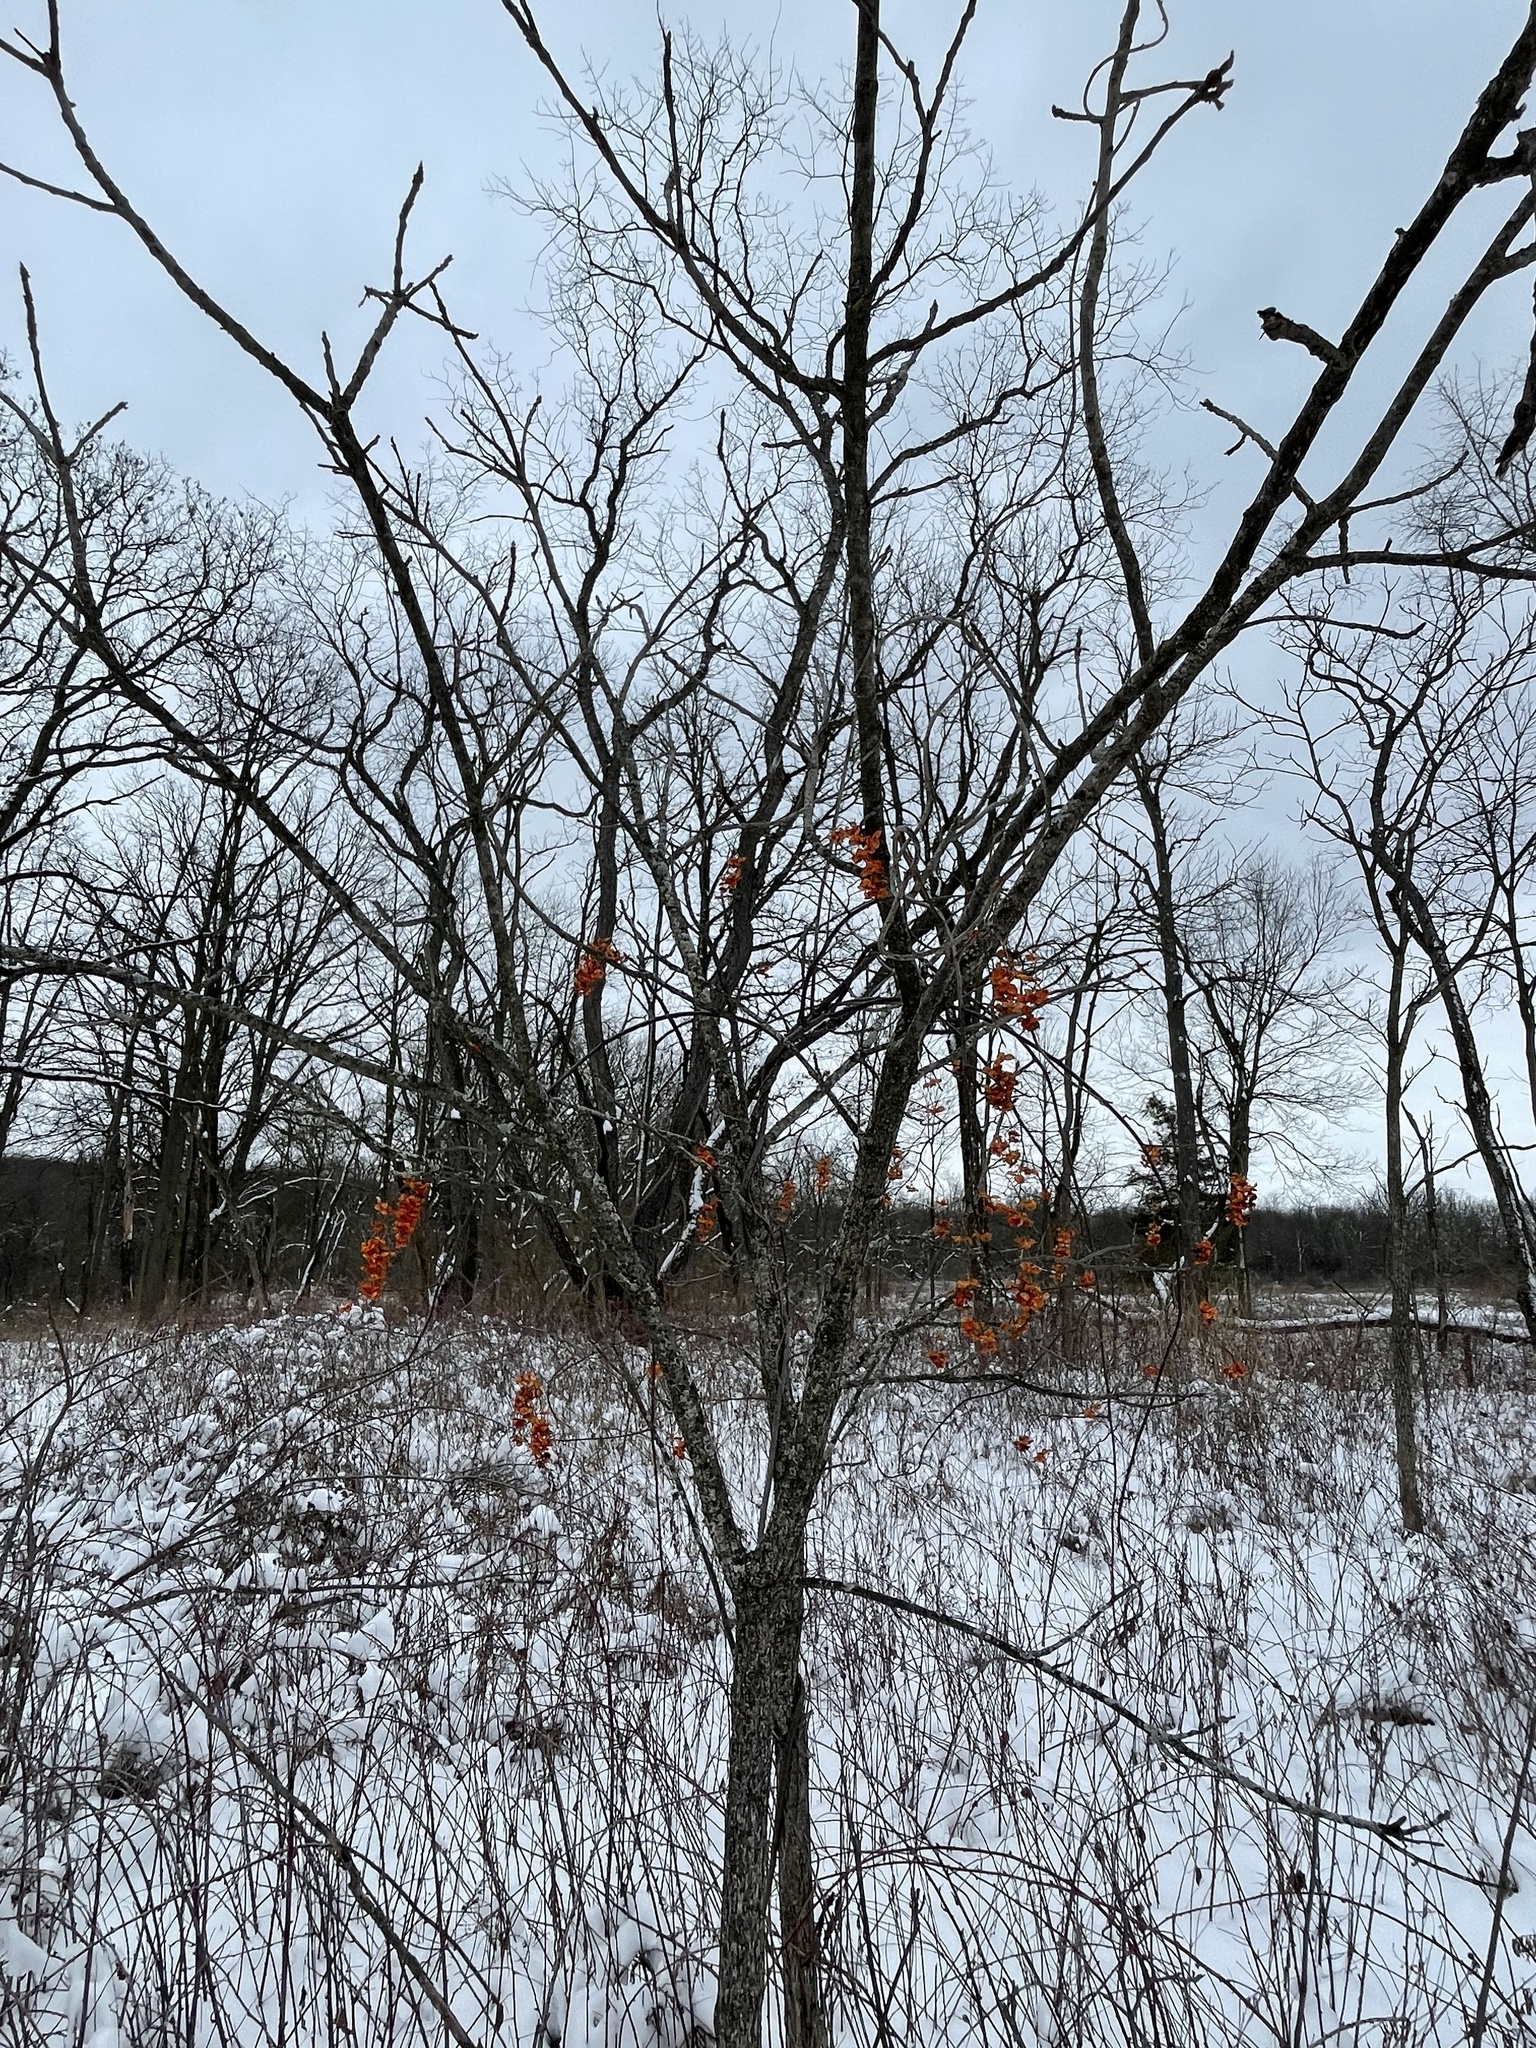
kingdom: Plantae
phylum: Tracheophyta
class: Magnoliopsida
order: Celastrales
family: Celastraceae
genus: Celastrus
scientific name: Celastrus scandens
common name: American bittersweet
